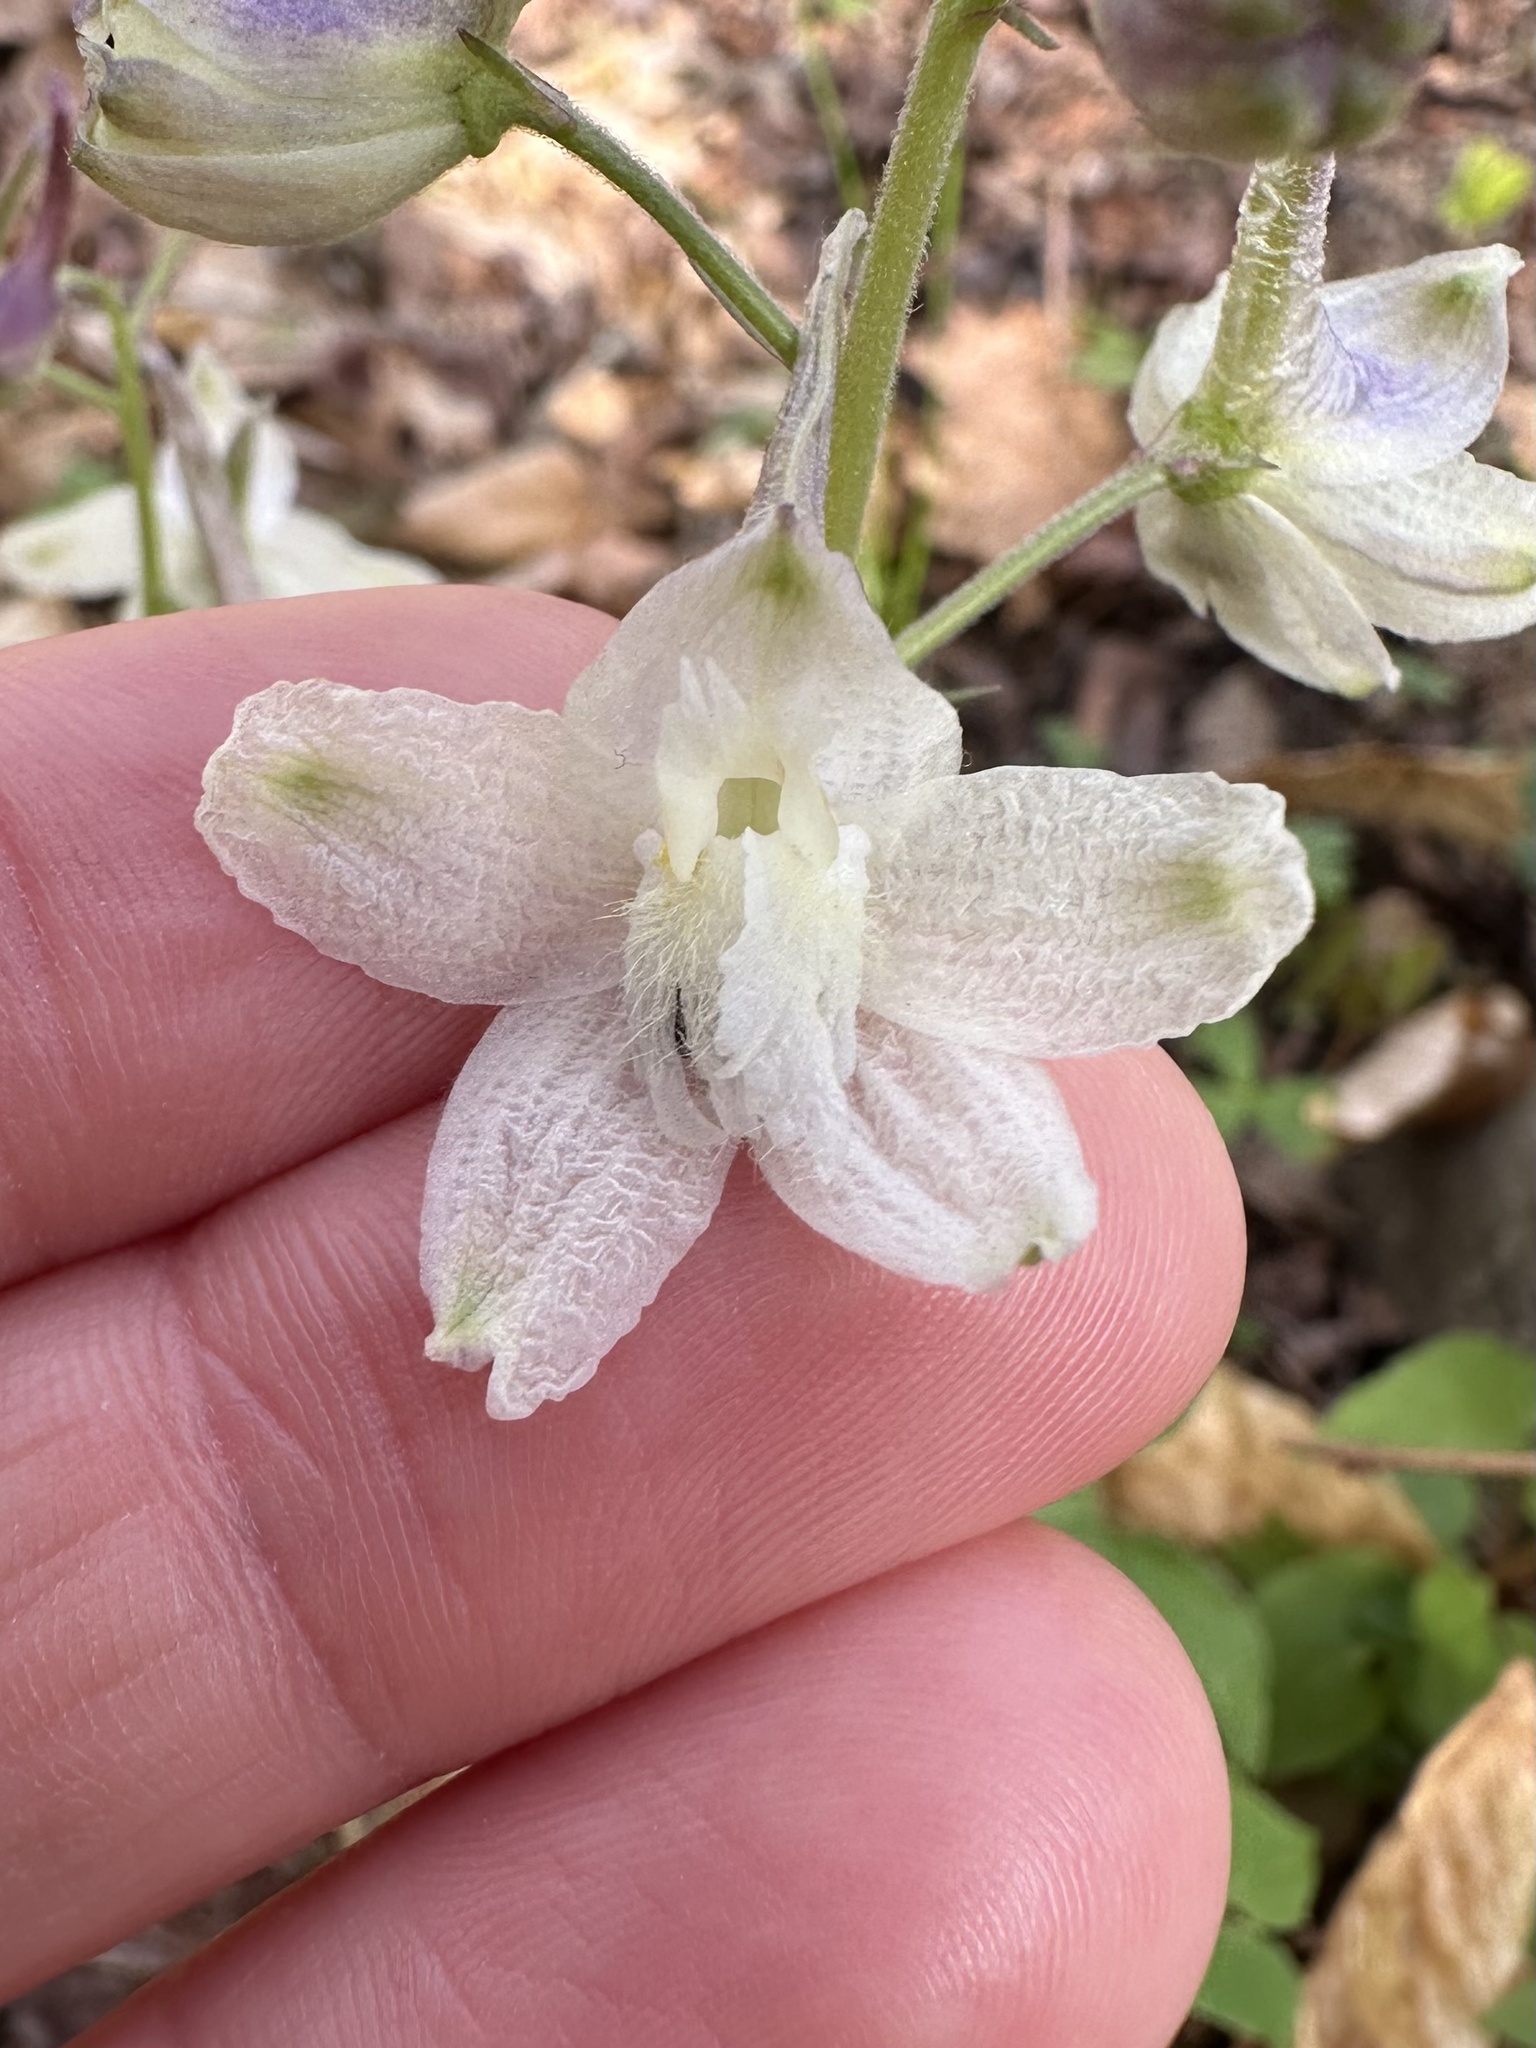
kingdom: Plantae
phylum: Tracheophyta
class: Magnoliopsida
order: Ranunculales
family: Ranunculaceae
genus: Delphinium
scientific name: Delphinium tricorne
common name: Dwarf larkspur
